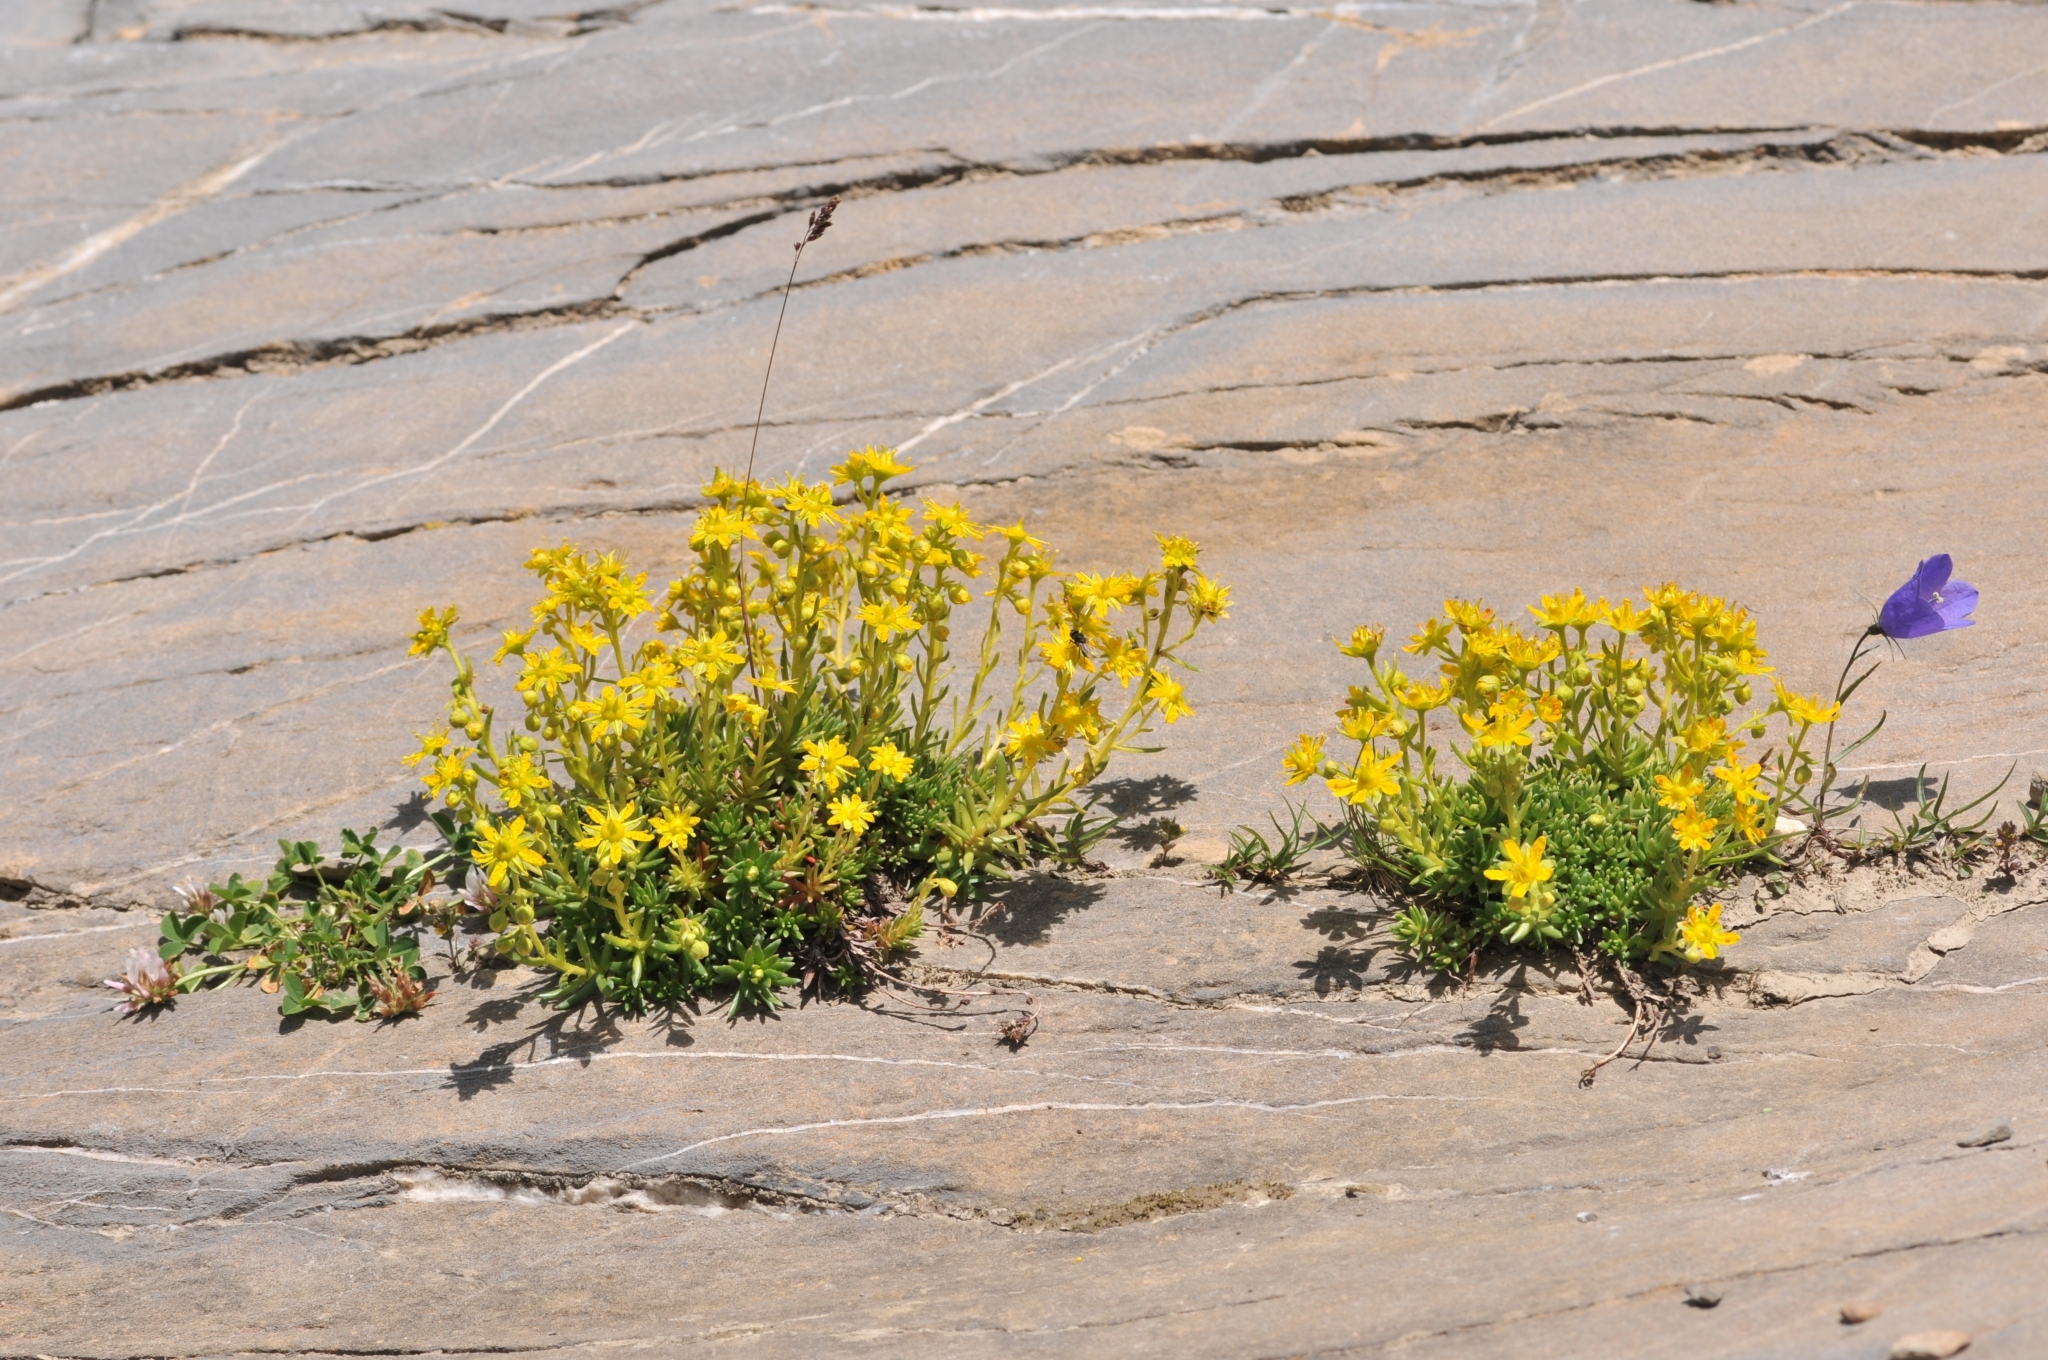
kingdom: Plantae
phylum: Tracheophyta
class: Magnoliopsida
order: Saxifragales
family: Saxifragaceae
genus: Saxifraga
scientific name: Saxifraga aizoides
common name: Yellow mountain saxifrage
